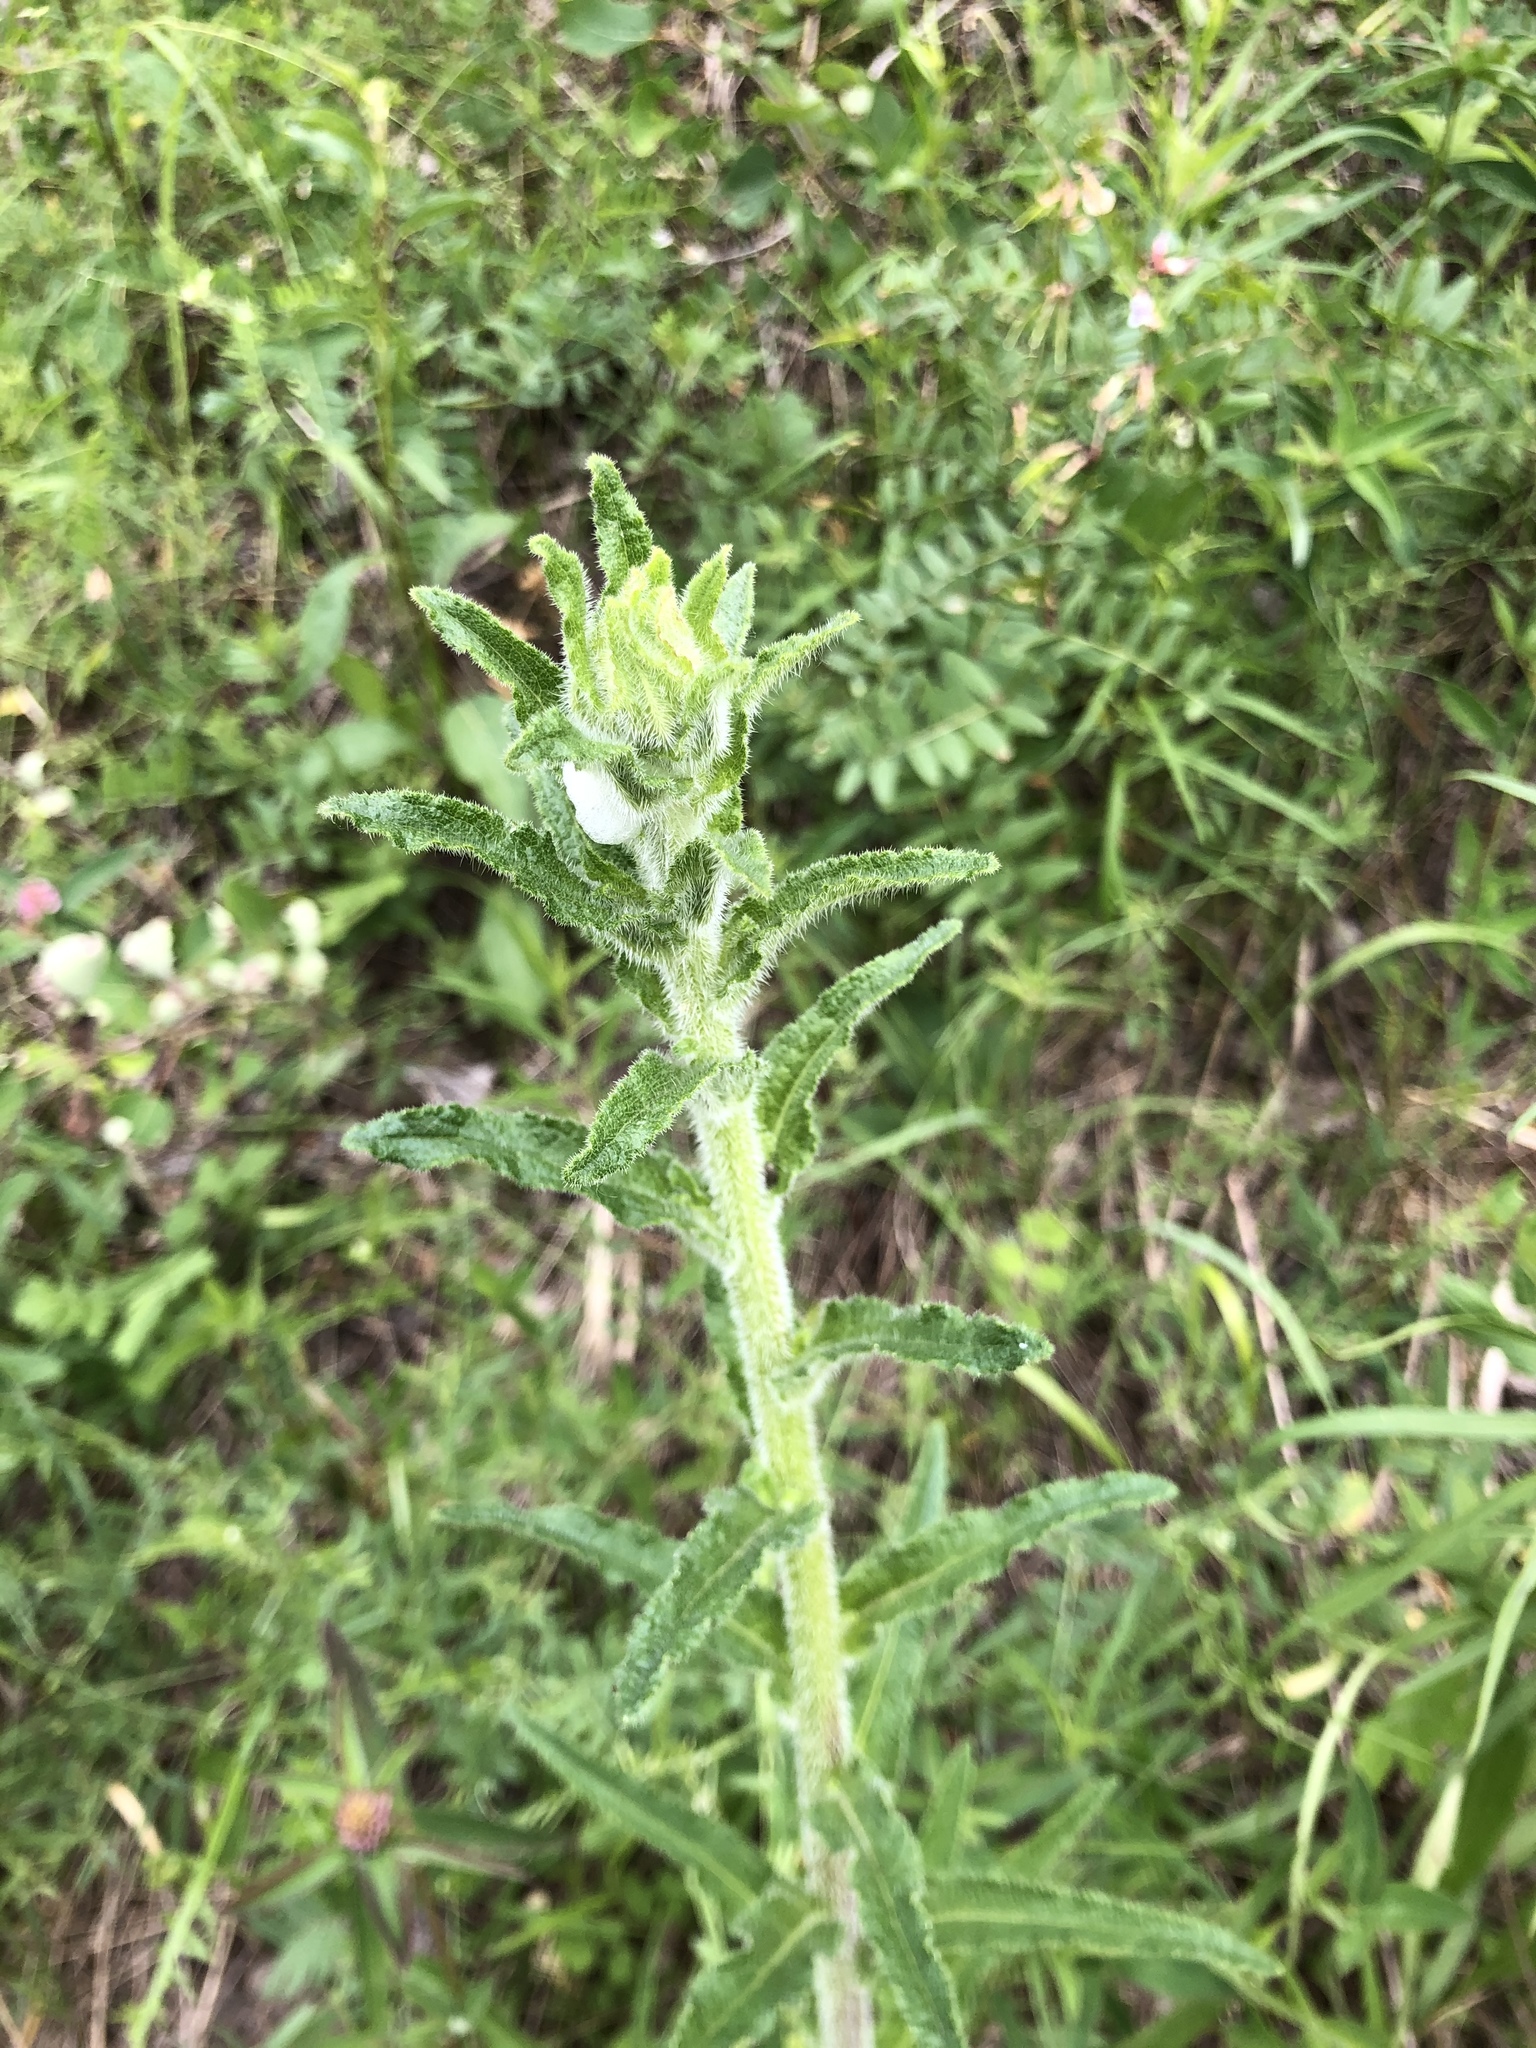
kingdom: Plantae
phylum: Tracheophyta
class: Magnoliopsida
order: Asterales
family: Campanulaceae
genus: Campanula
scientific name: Campanula cervicaria
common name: Bristly bellflower
